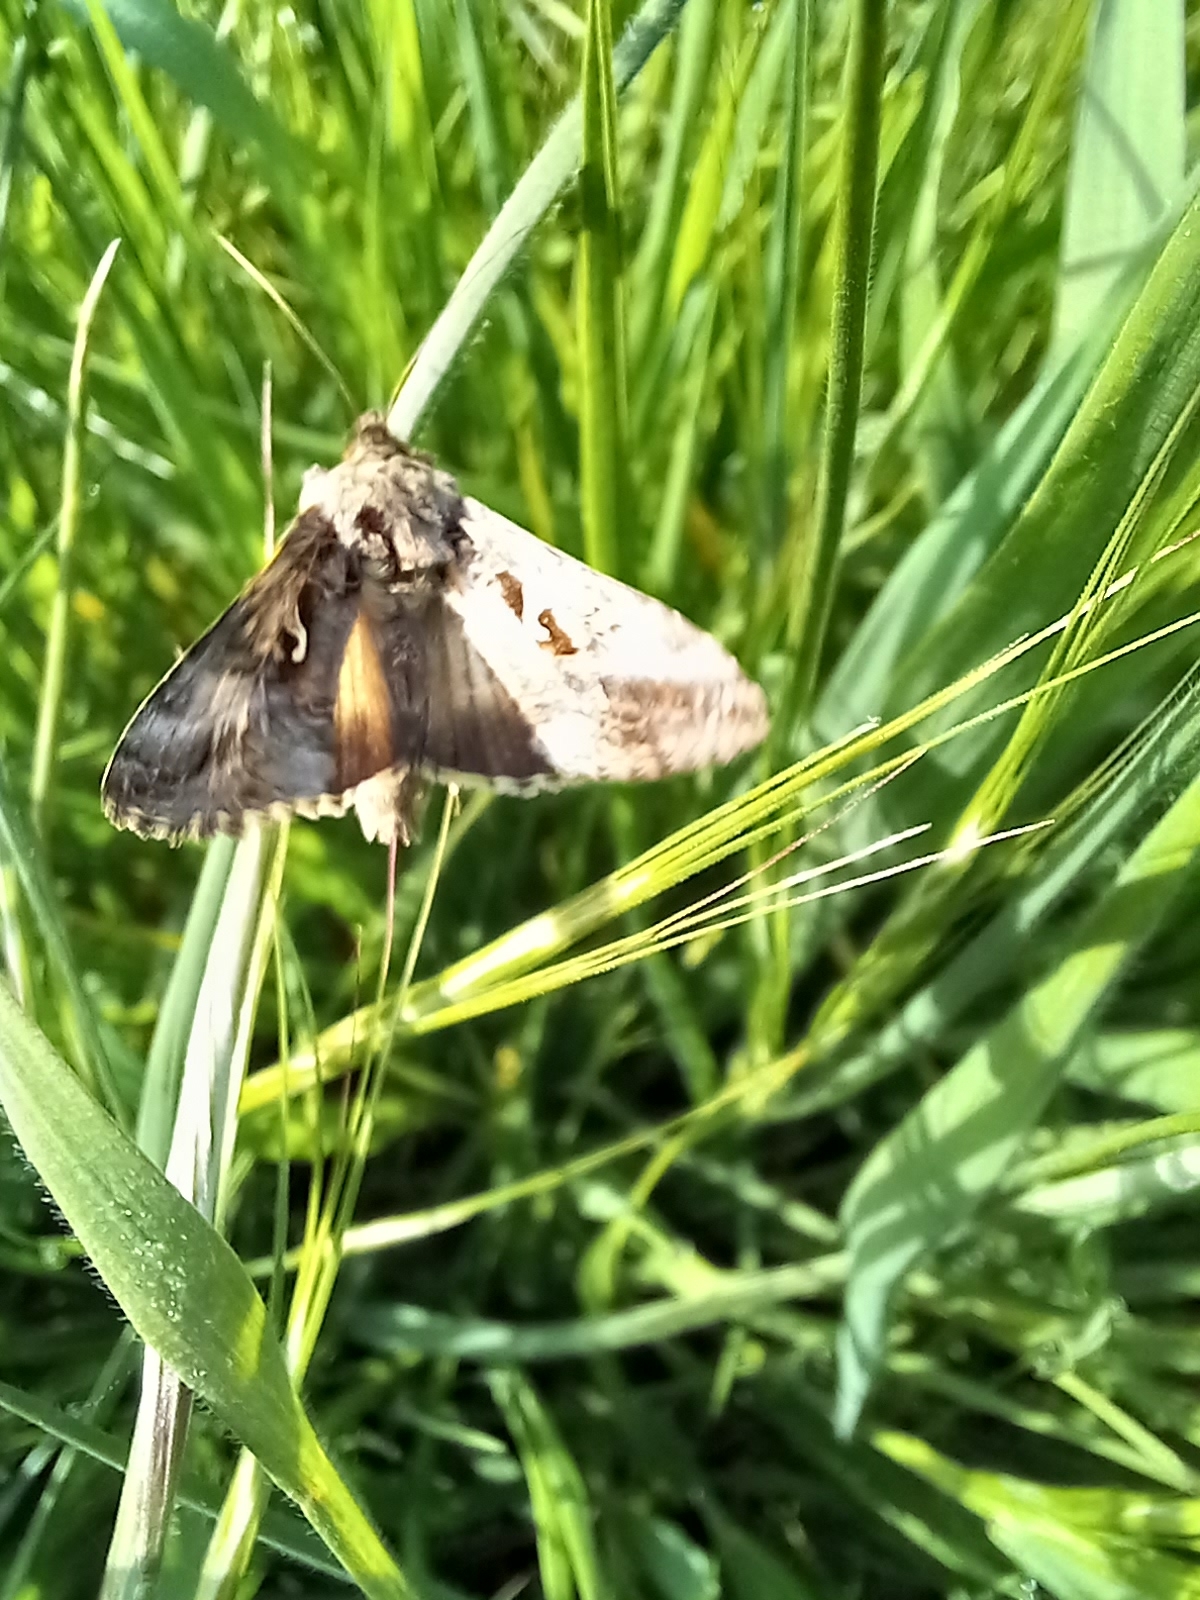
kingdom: Animalia
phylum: Arthropoda
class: Insecta
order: Lepidoptera
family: Noctuidae
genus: Autographa
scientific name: Autographa gamma
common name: Silver y
